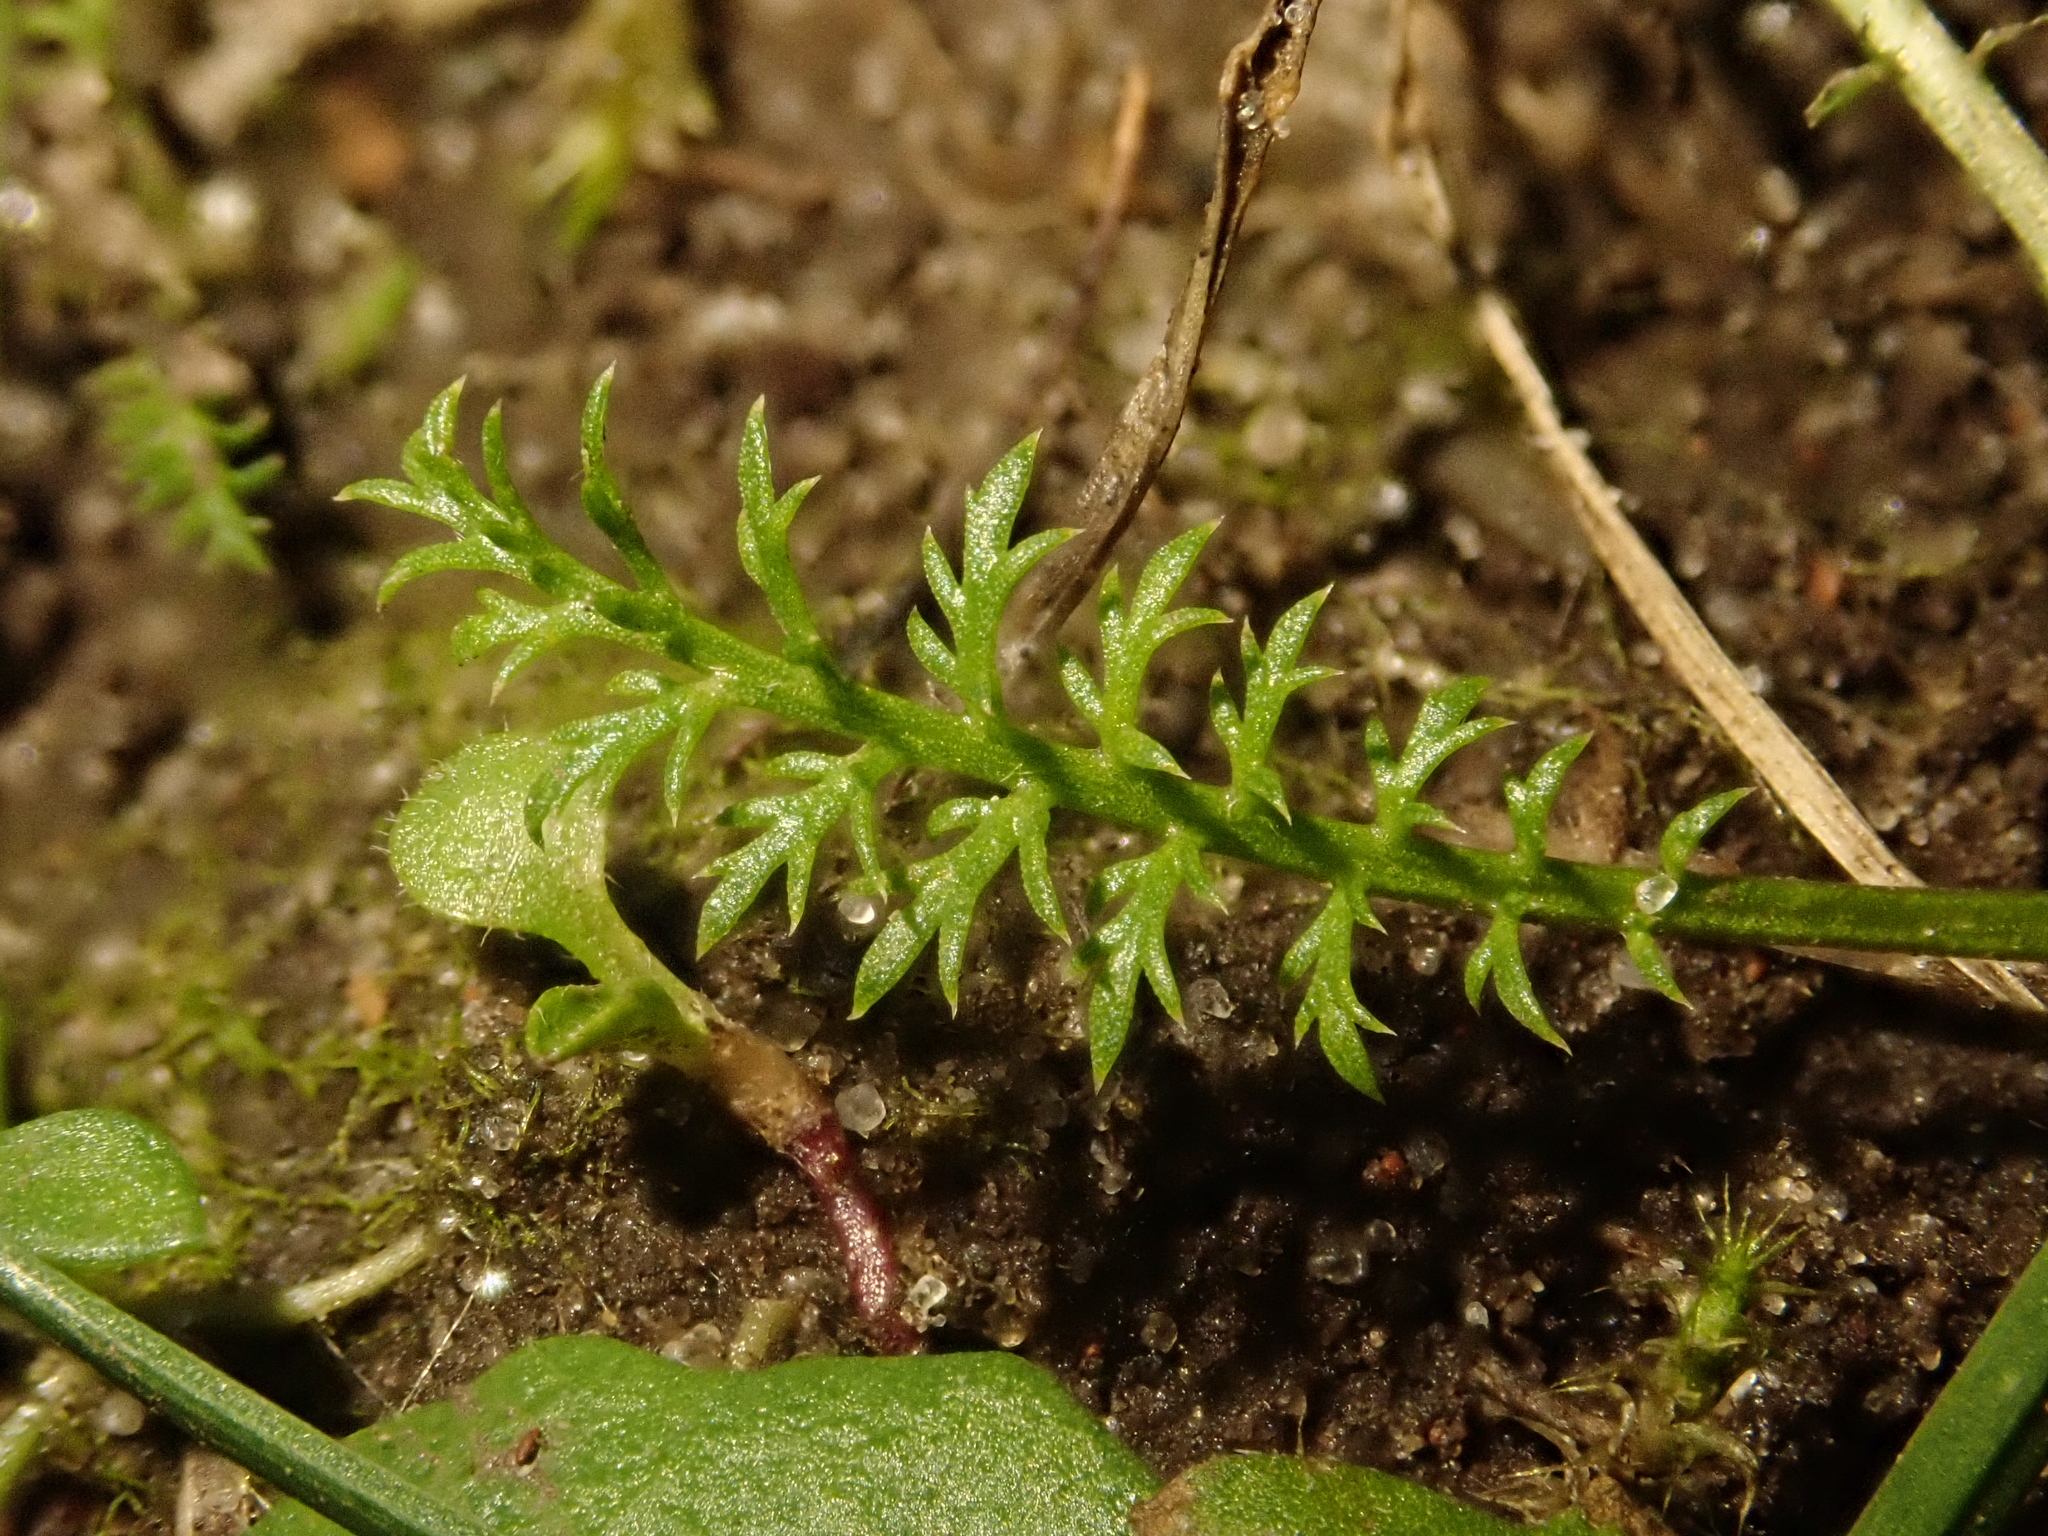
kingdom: Plantae
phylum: Tracheophyta
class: Magnoliopsida
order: Asterales
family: Asteraceae
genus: Achillea
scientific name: Achillea millefolium
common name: Yarrow
